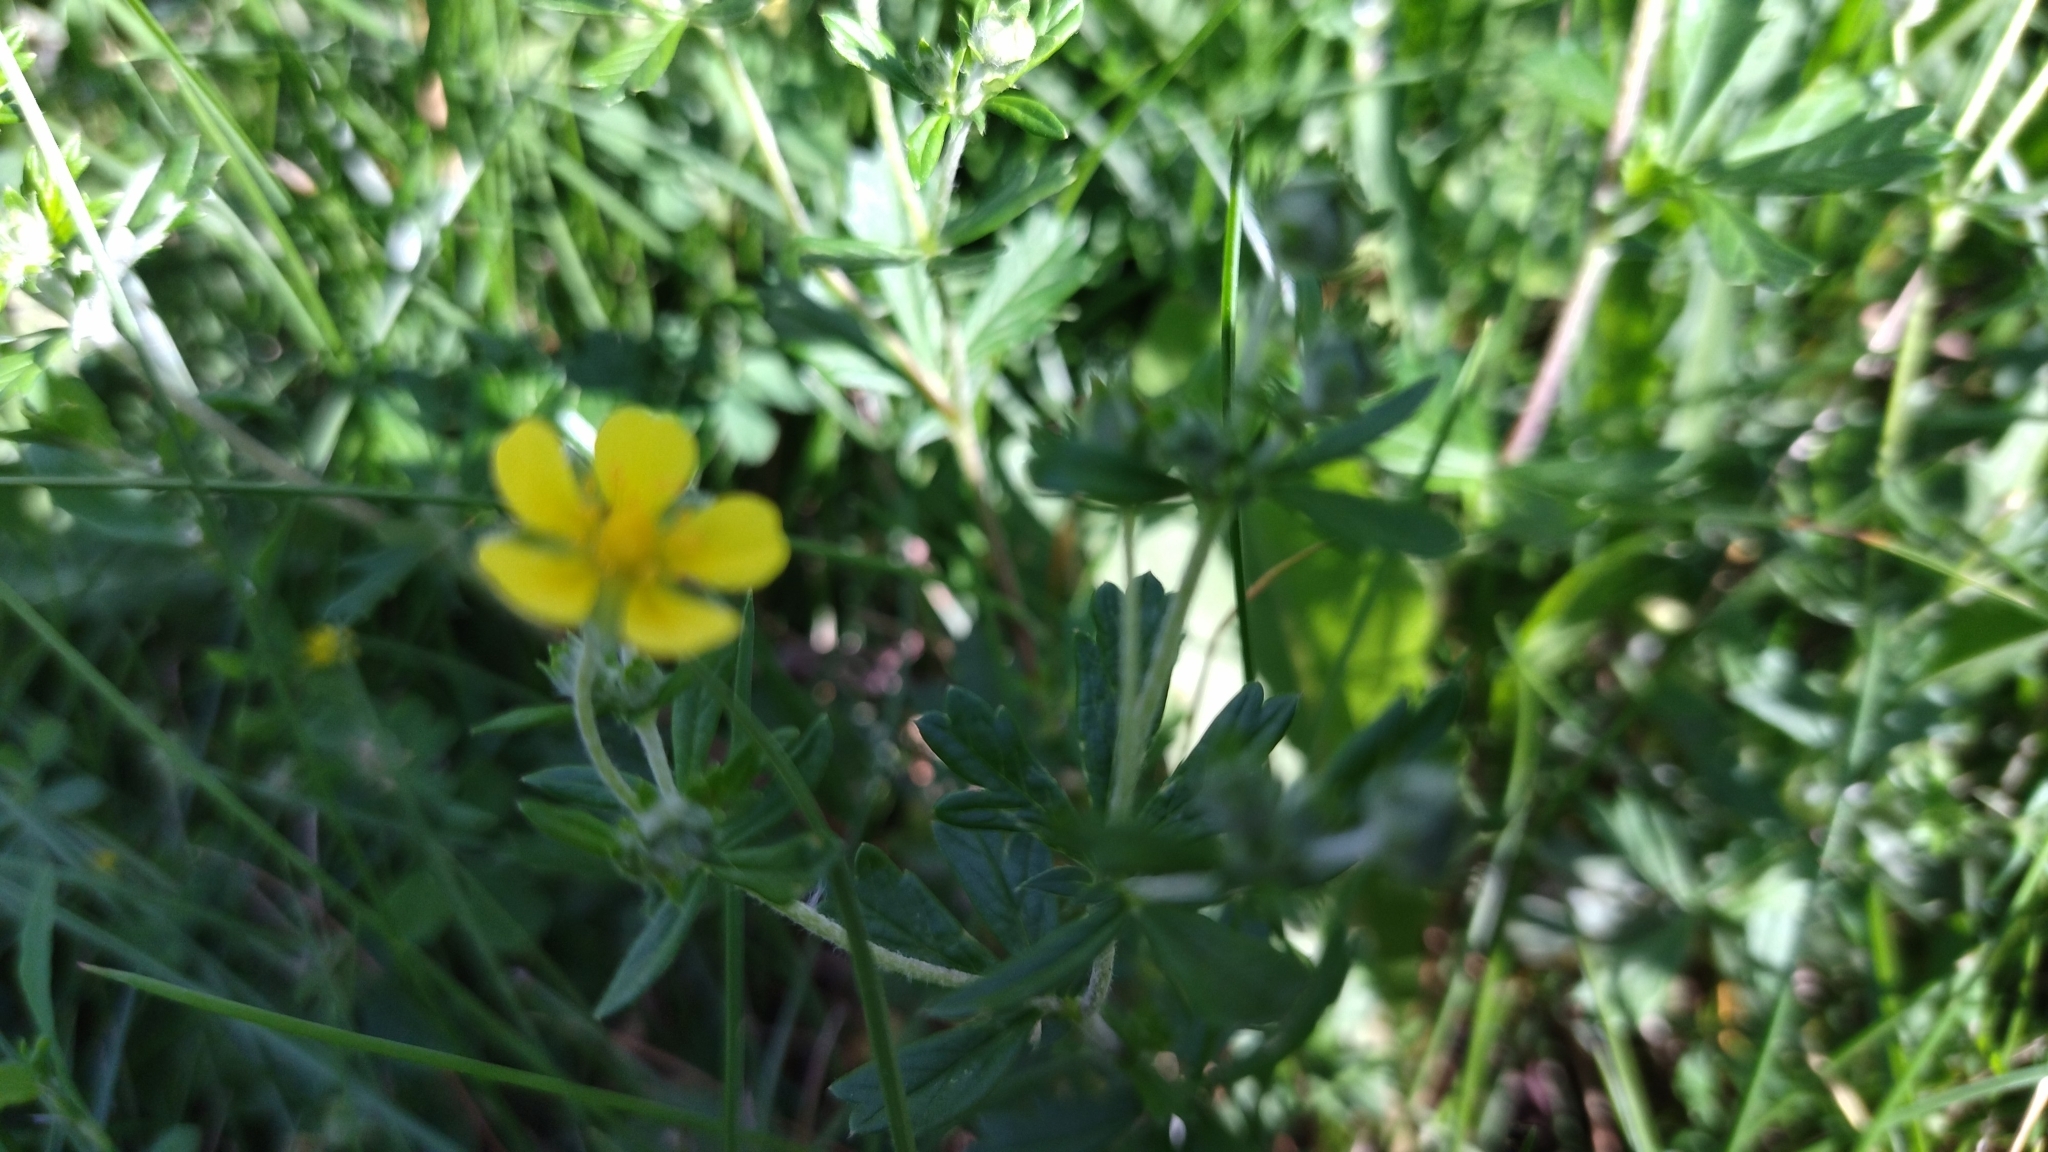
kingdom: Plantae
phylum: Tracheophyta
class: Magnoliopsida
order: Rosales
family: Rosaceae
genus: Potentilla
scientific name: Potentilla argentea
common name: Hoary cinquefoil
